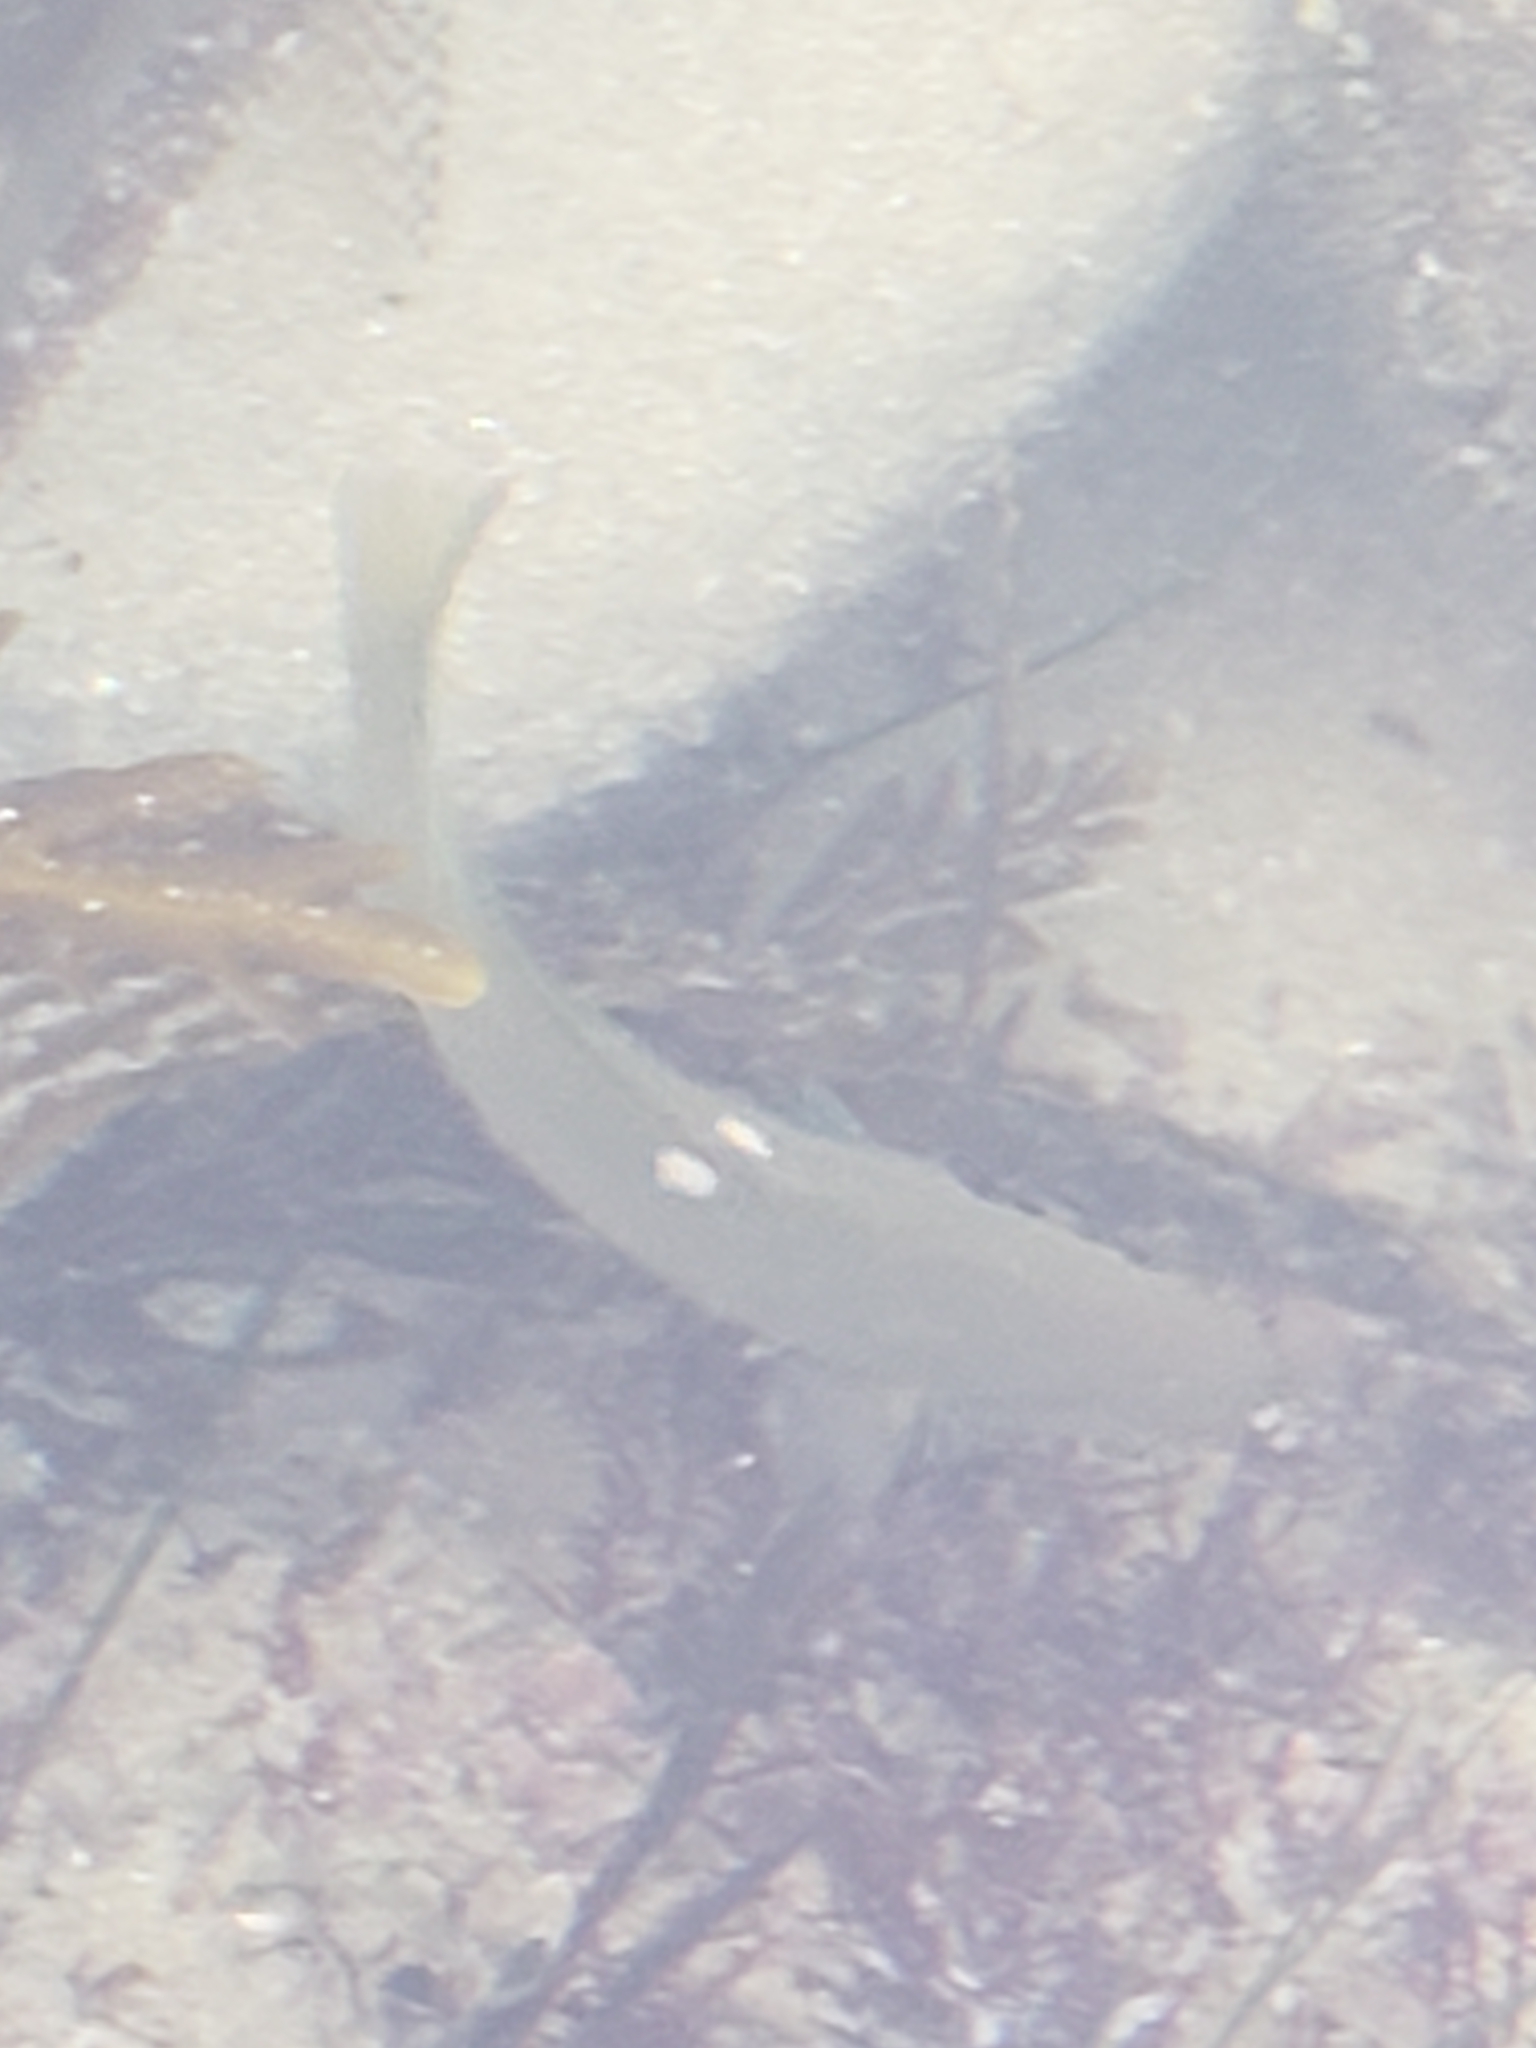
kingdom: Animalia
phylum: Chordata
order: Perciformes
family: Kyphosidae
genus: Girella
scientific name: Girella nigricans
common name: Opaleye
